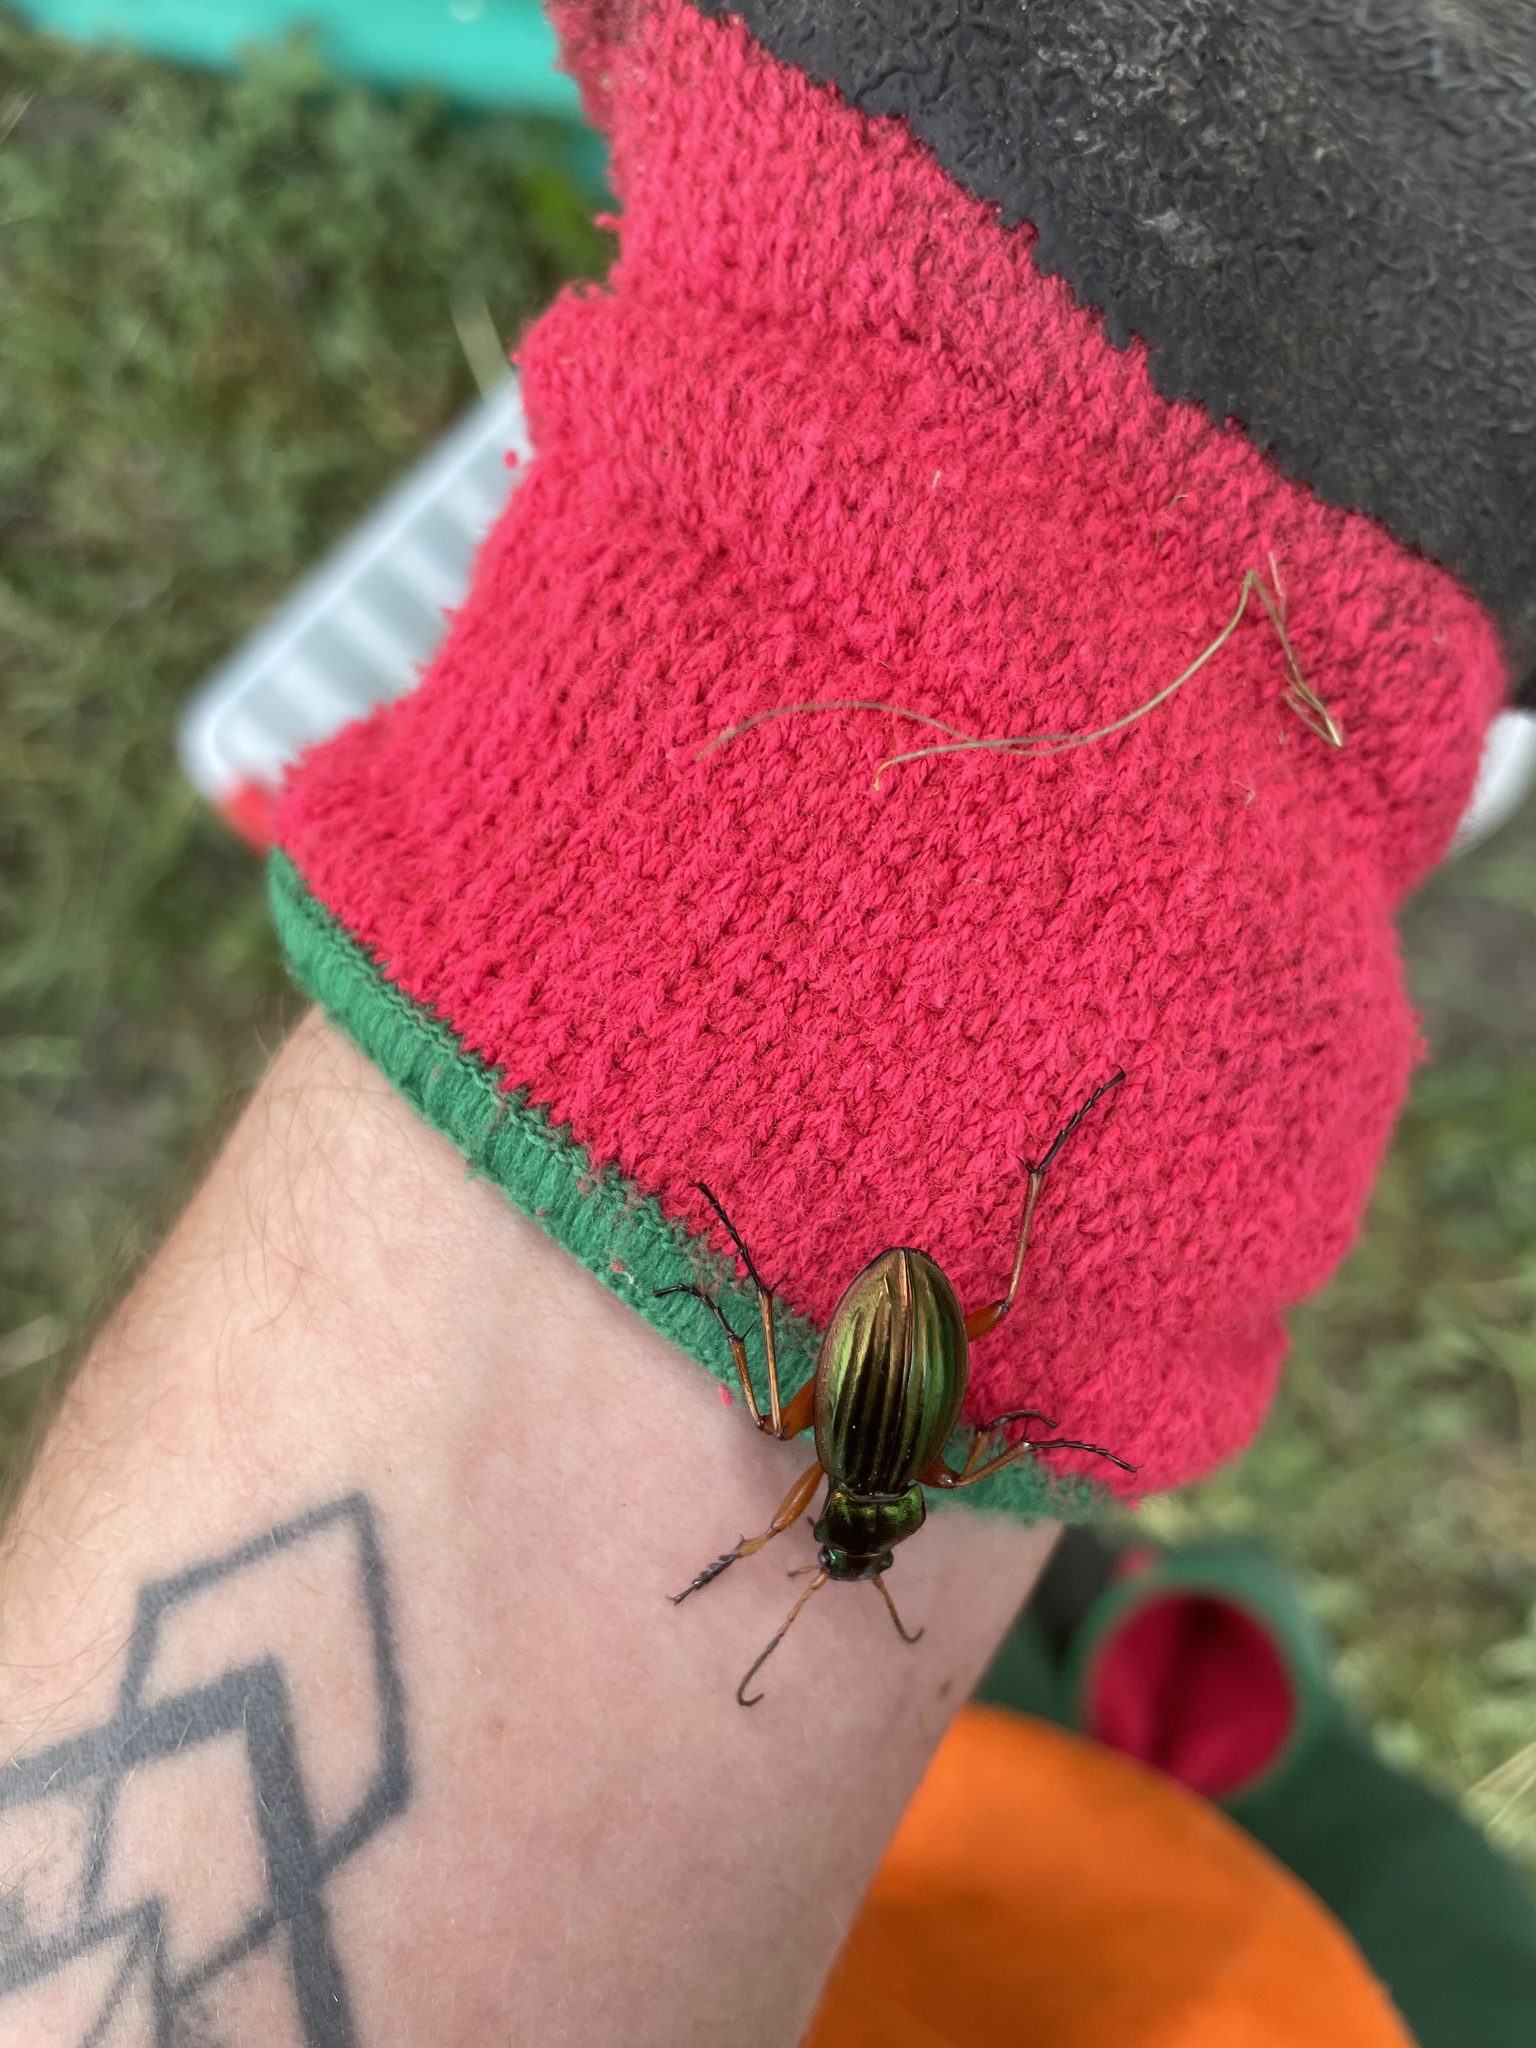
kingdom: Animalia
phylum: Arthropoda
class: Insecta
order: Coleoptera
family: Carabidae
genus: Carabus
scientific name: Carabus auratus
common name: Golden ground beetle
